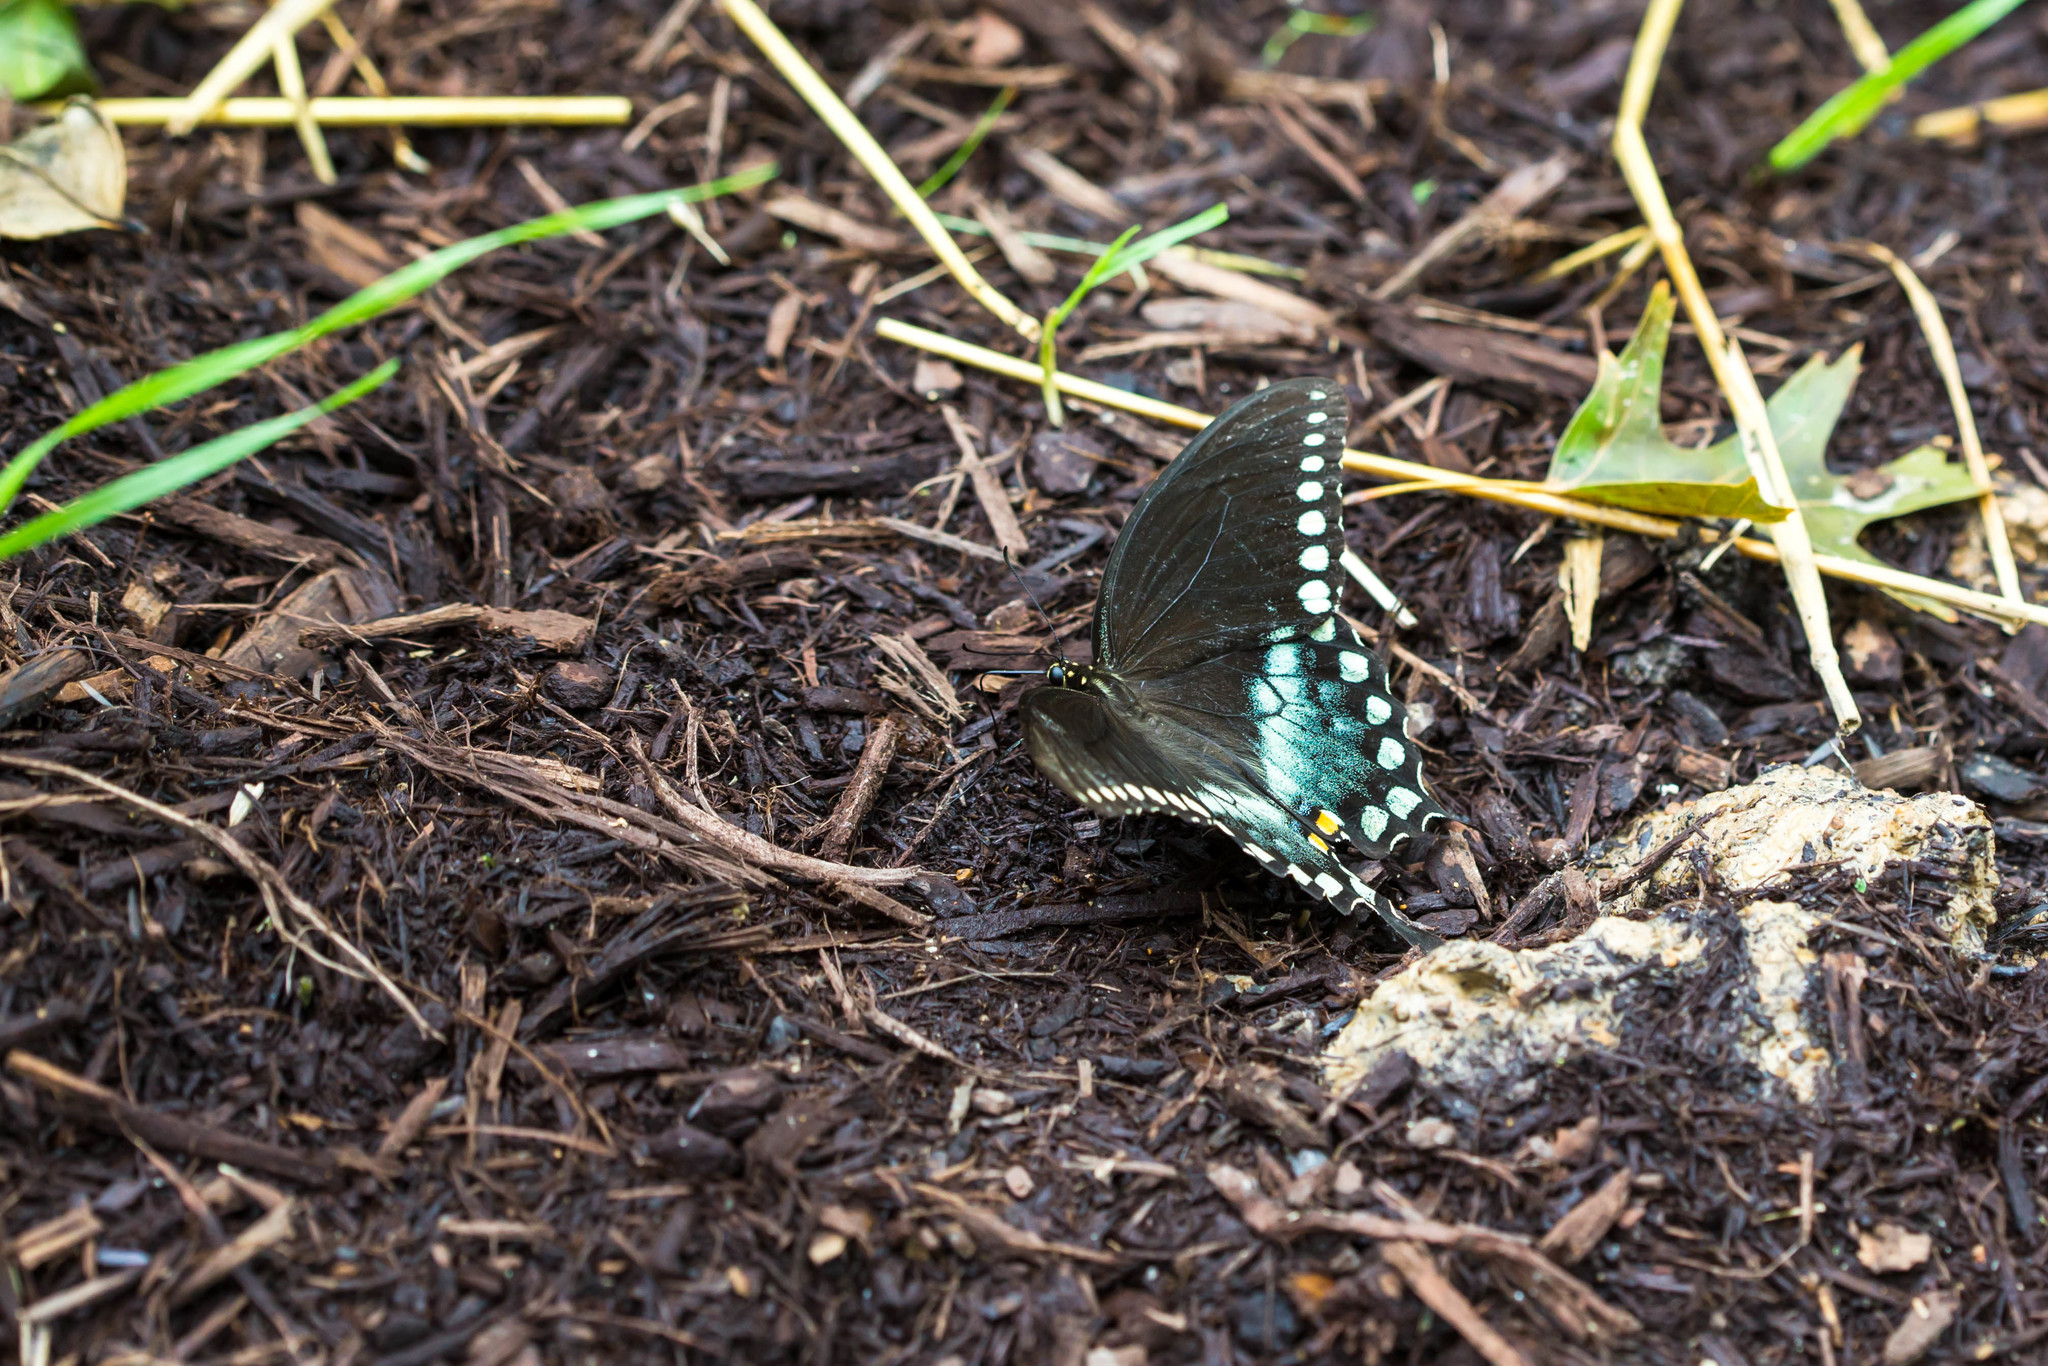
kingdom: Animalia
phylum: Arthropoda
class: Insecta
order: Lepidoptera
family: Papilionidae
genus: Papilio
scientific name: Papilio troilus
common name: Spicebush swallowtail
